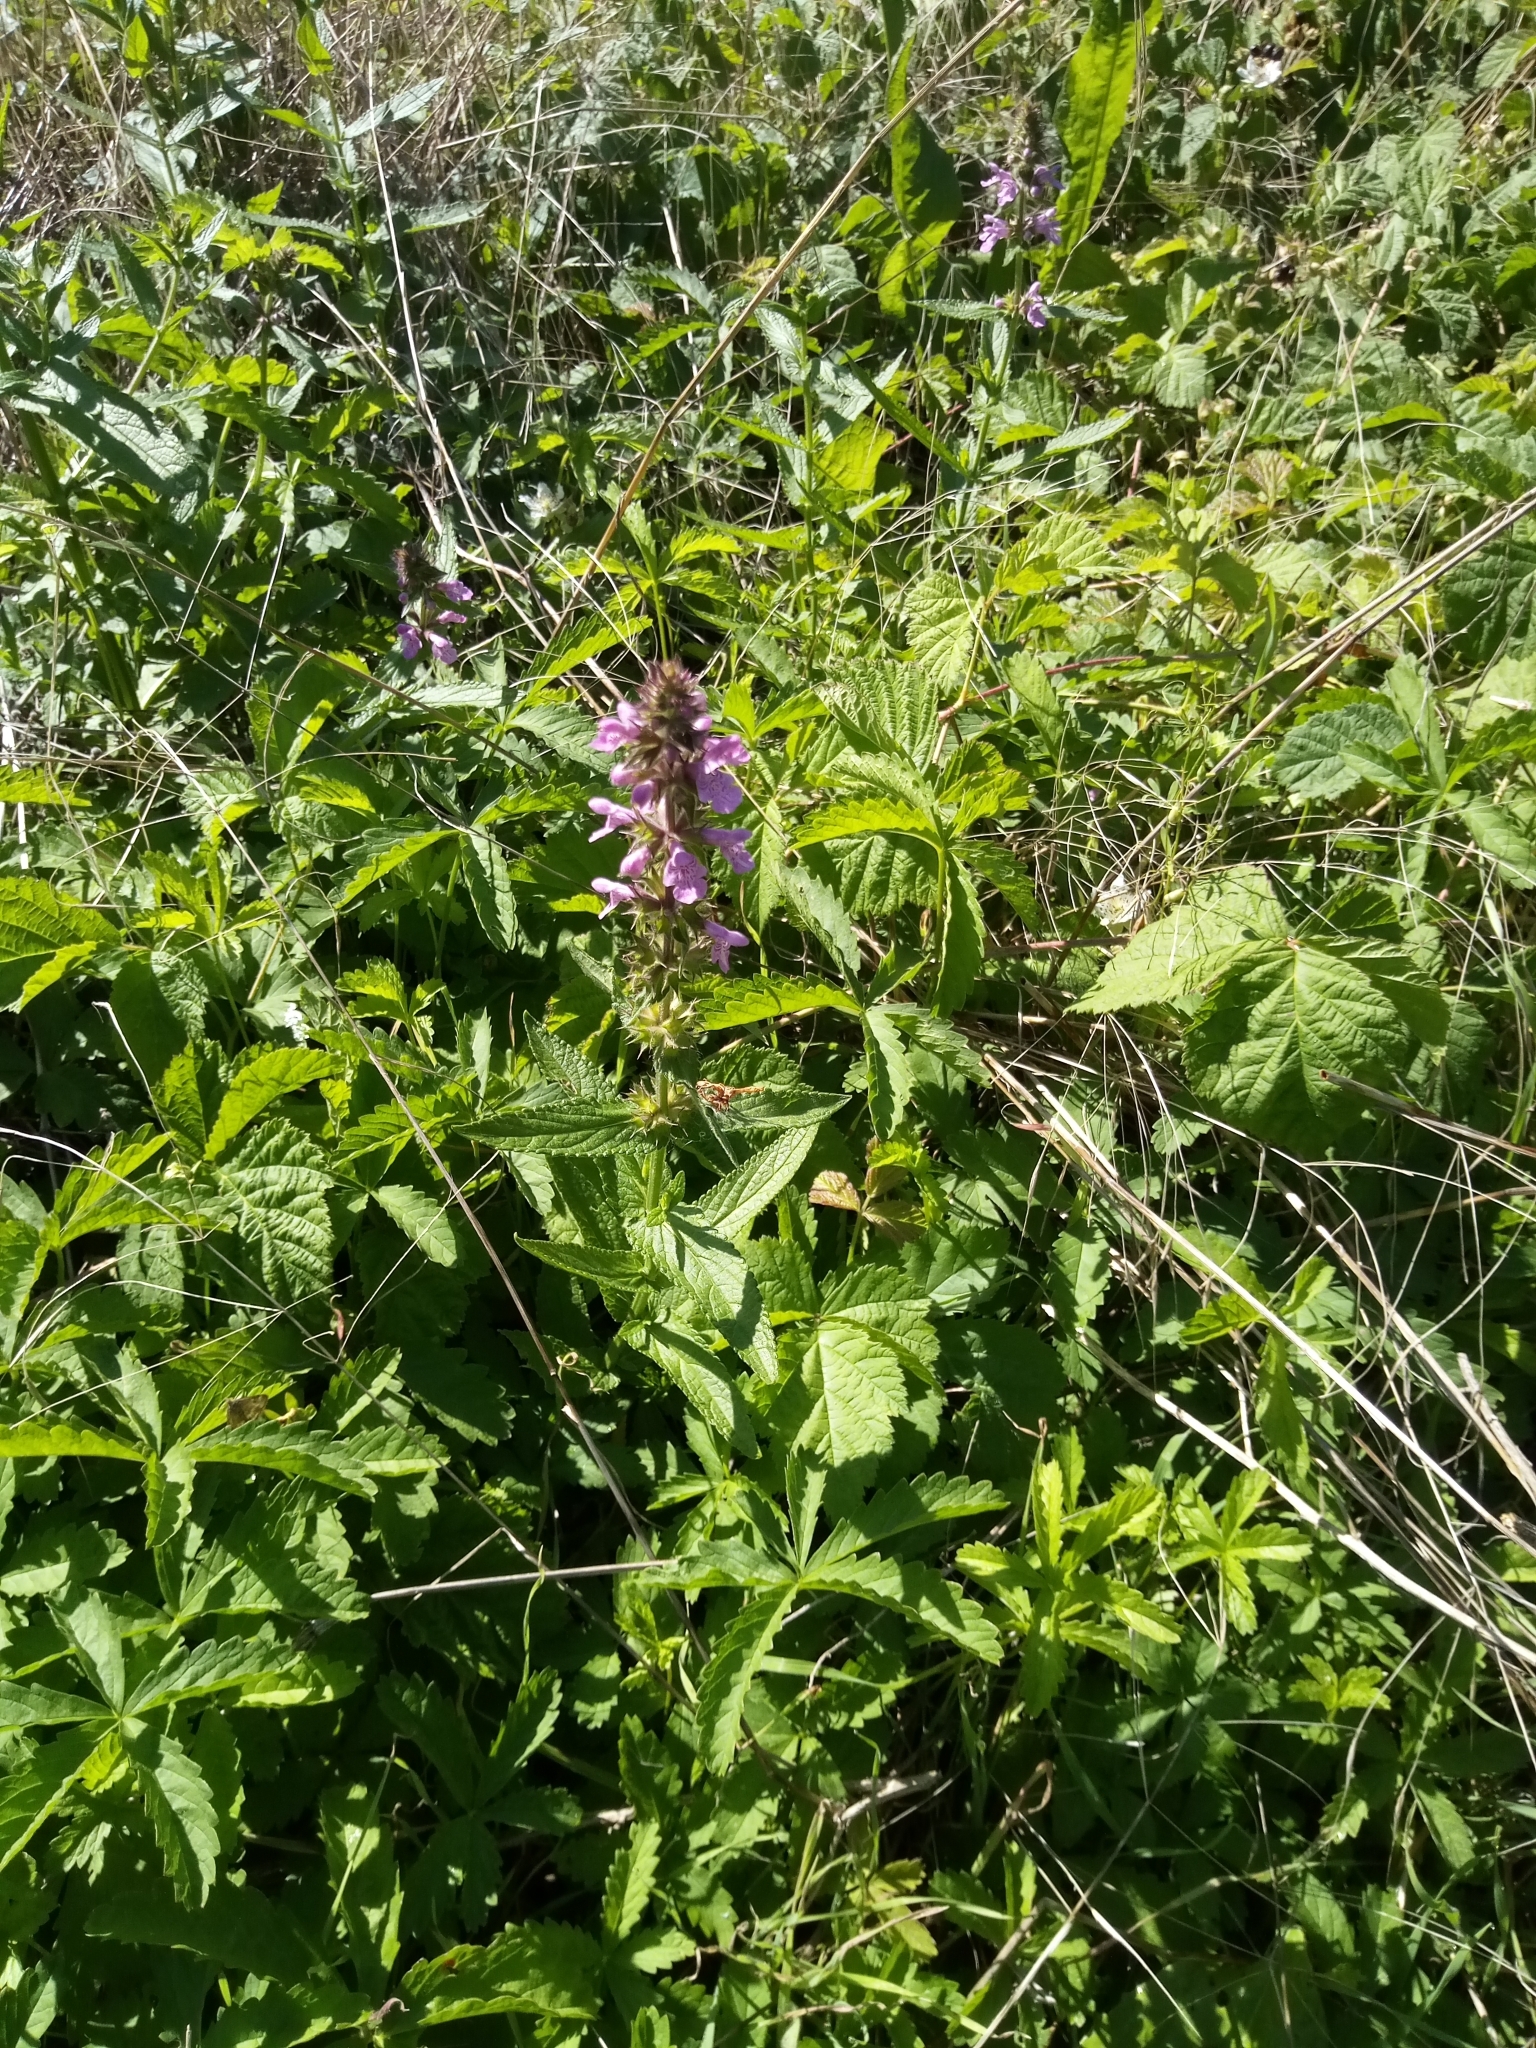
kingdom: Plantae
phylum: Tracheophyta
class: Magnoliopsida
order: Lamiales
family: Lamiaceae
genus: Stachys
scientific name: Stachys palustris
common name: Marsh woundwort
